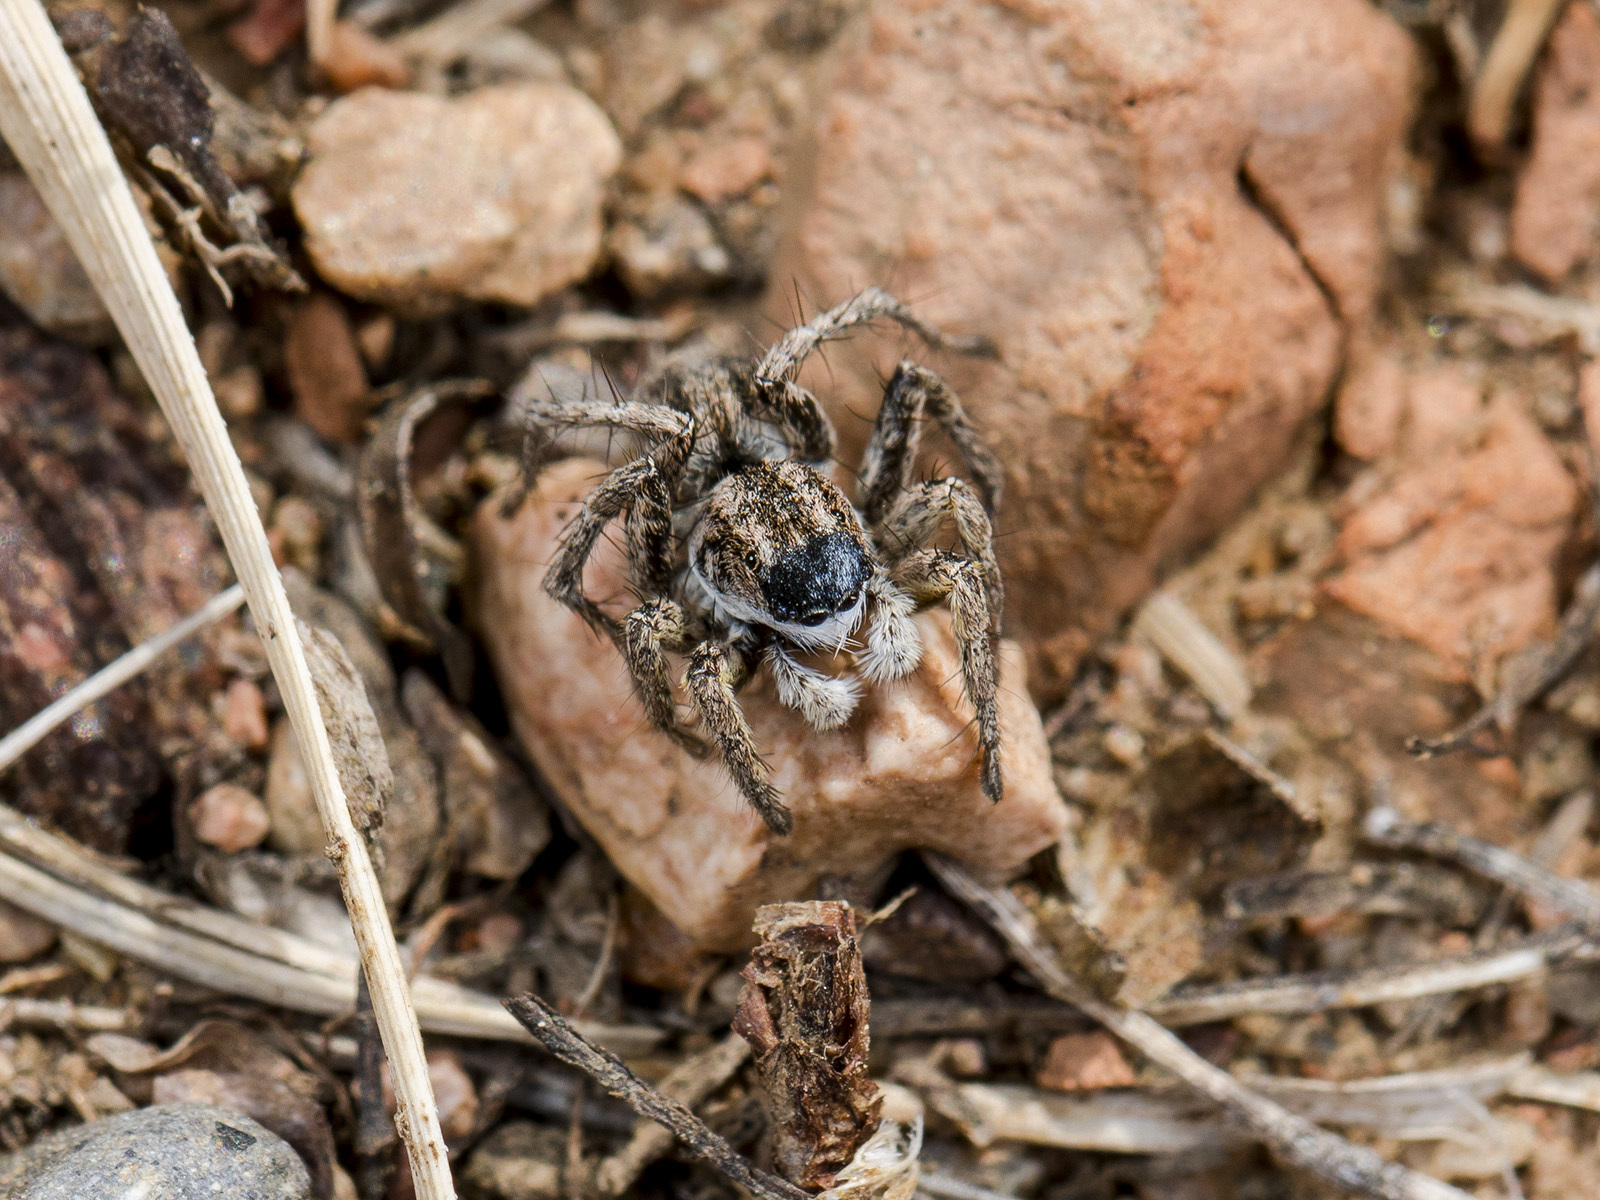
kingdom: Animalia
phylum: Arthropoda
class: Arachnida
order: Araneae
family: Salticidae
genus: Aelurillus
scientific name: Aelurillus m-nigrum
